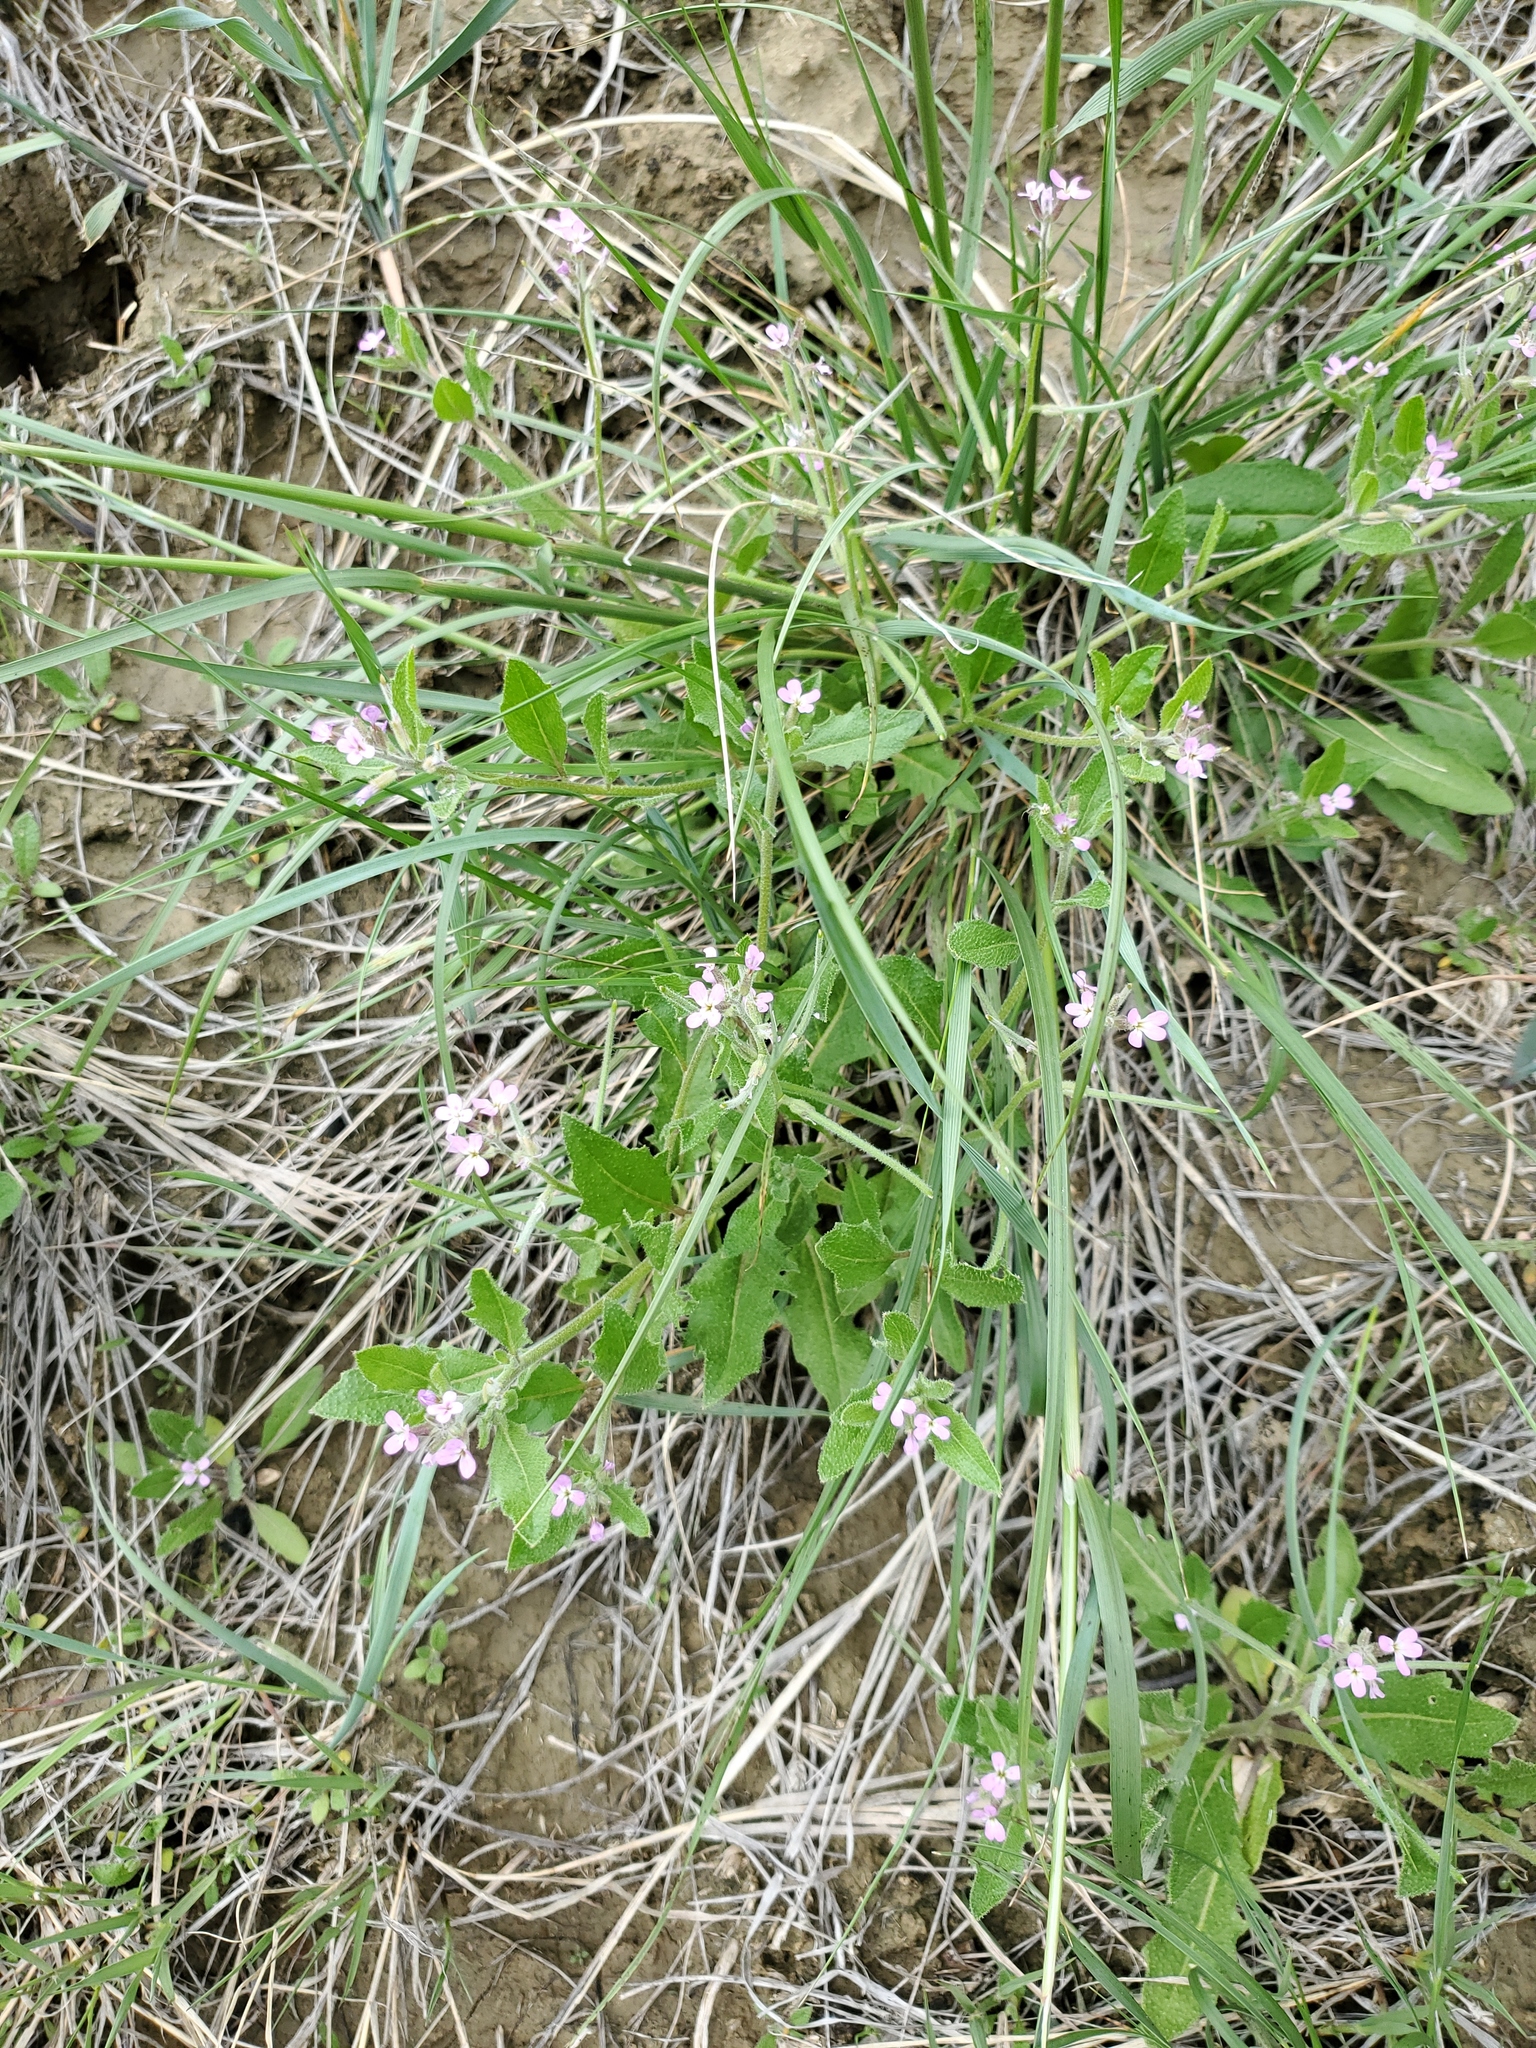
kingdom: Plantae
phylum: Tracheophyta
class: Magnoliopsida
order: Brassicales
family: Brassicaceae
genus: Strigosella
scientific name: Strigosella africana
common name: African mustard
